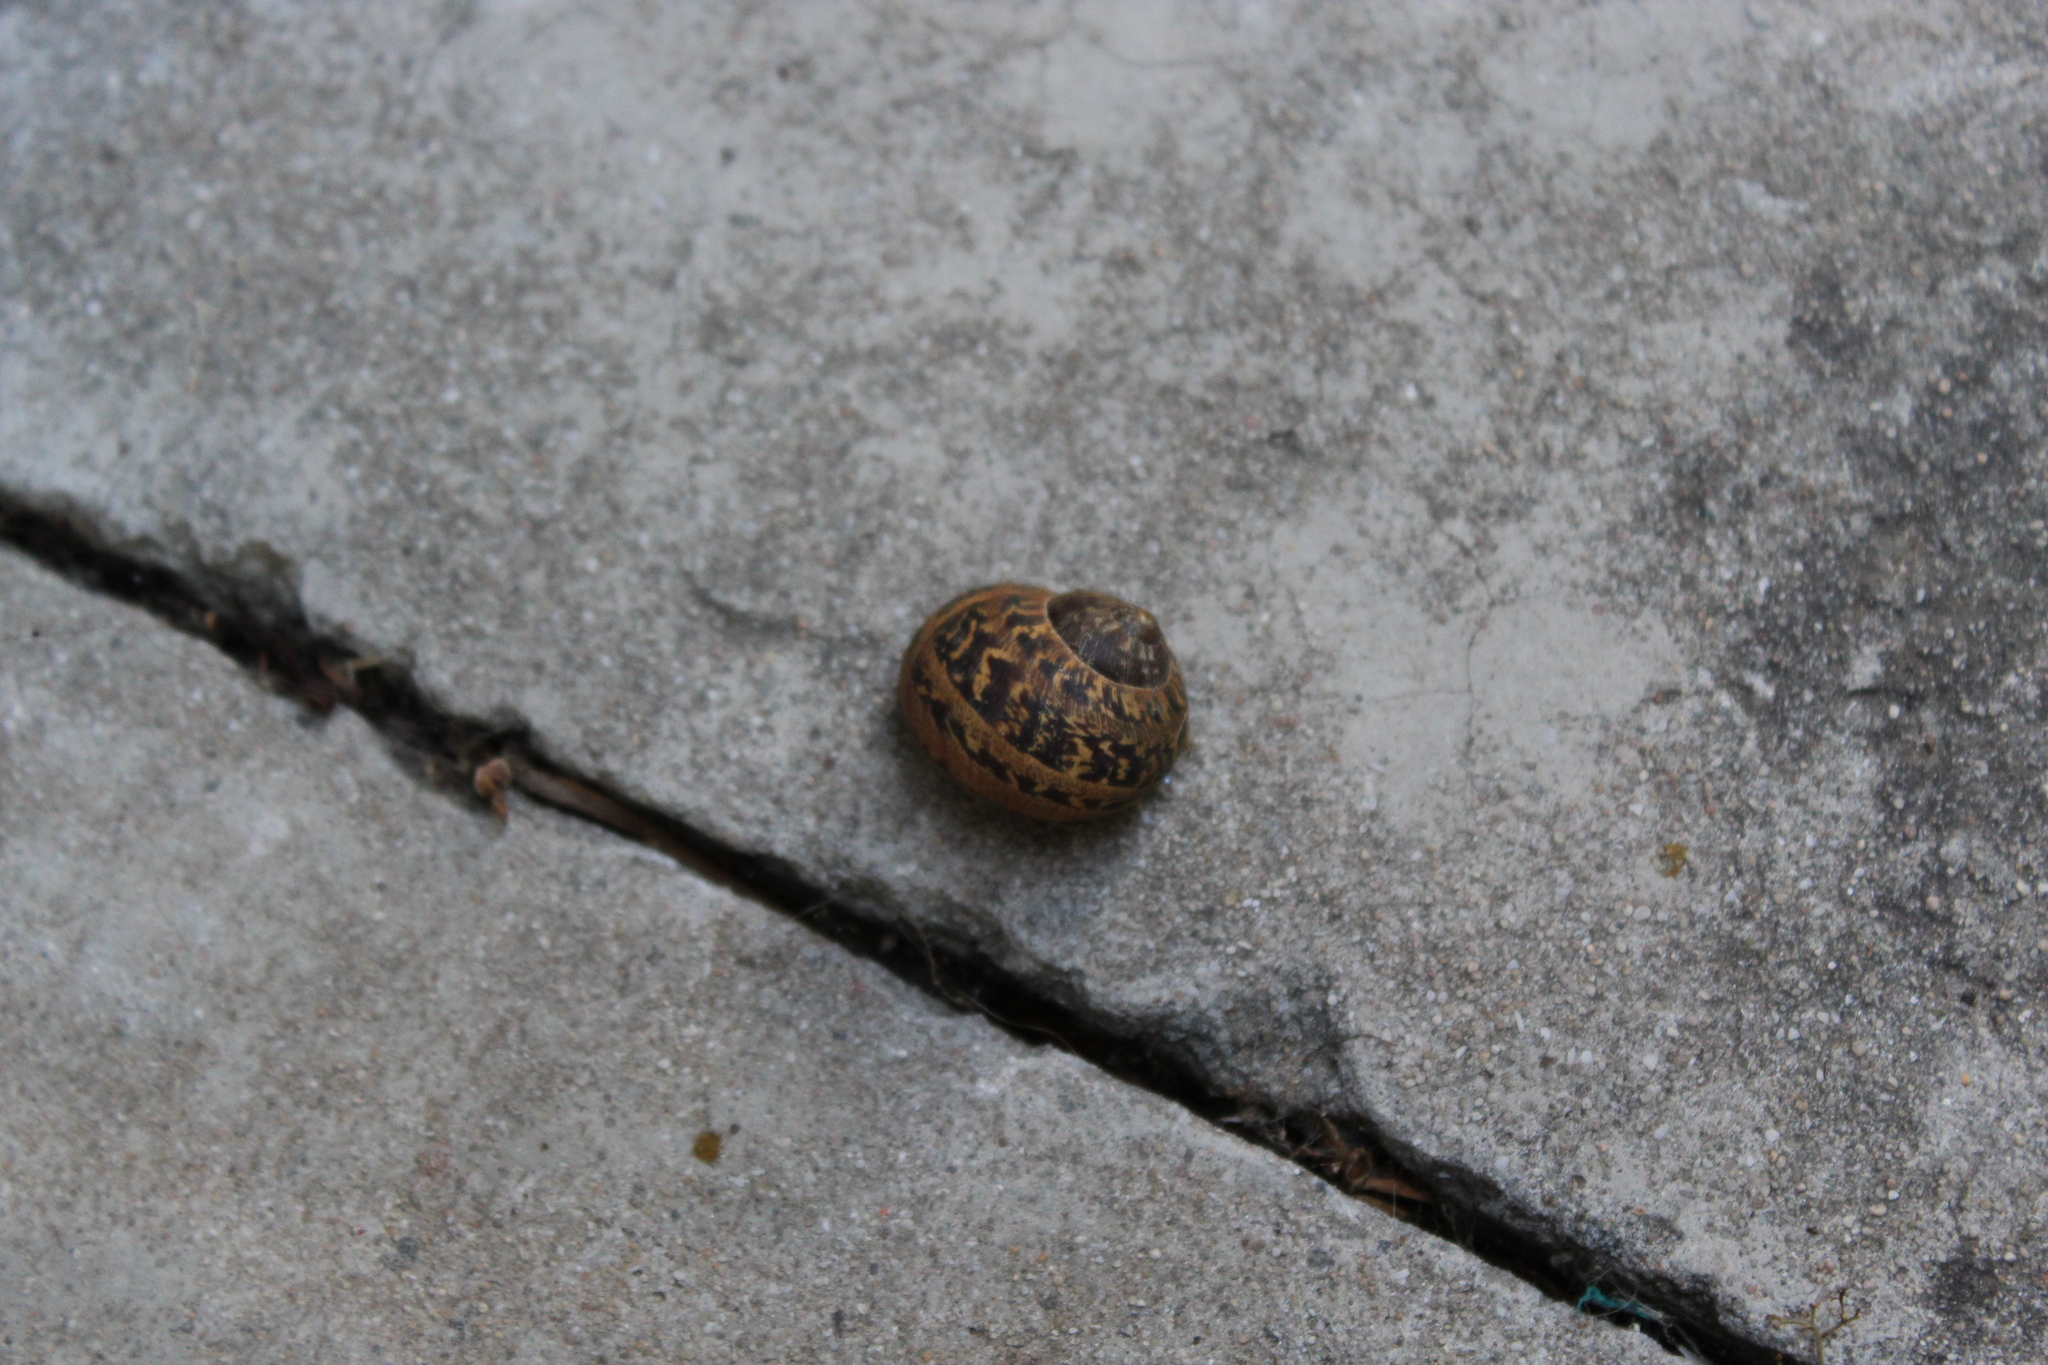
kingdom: Animalia
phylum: Mollusca
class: Gastropoda
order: Stylommatophora
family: Helicidae
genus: Cornu
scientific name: Cornu aspersum
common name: Brown garden snail
